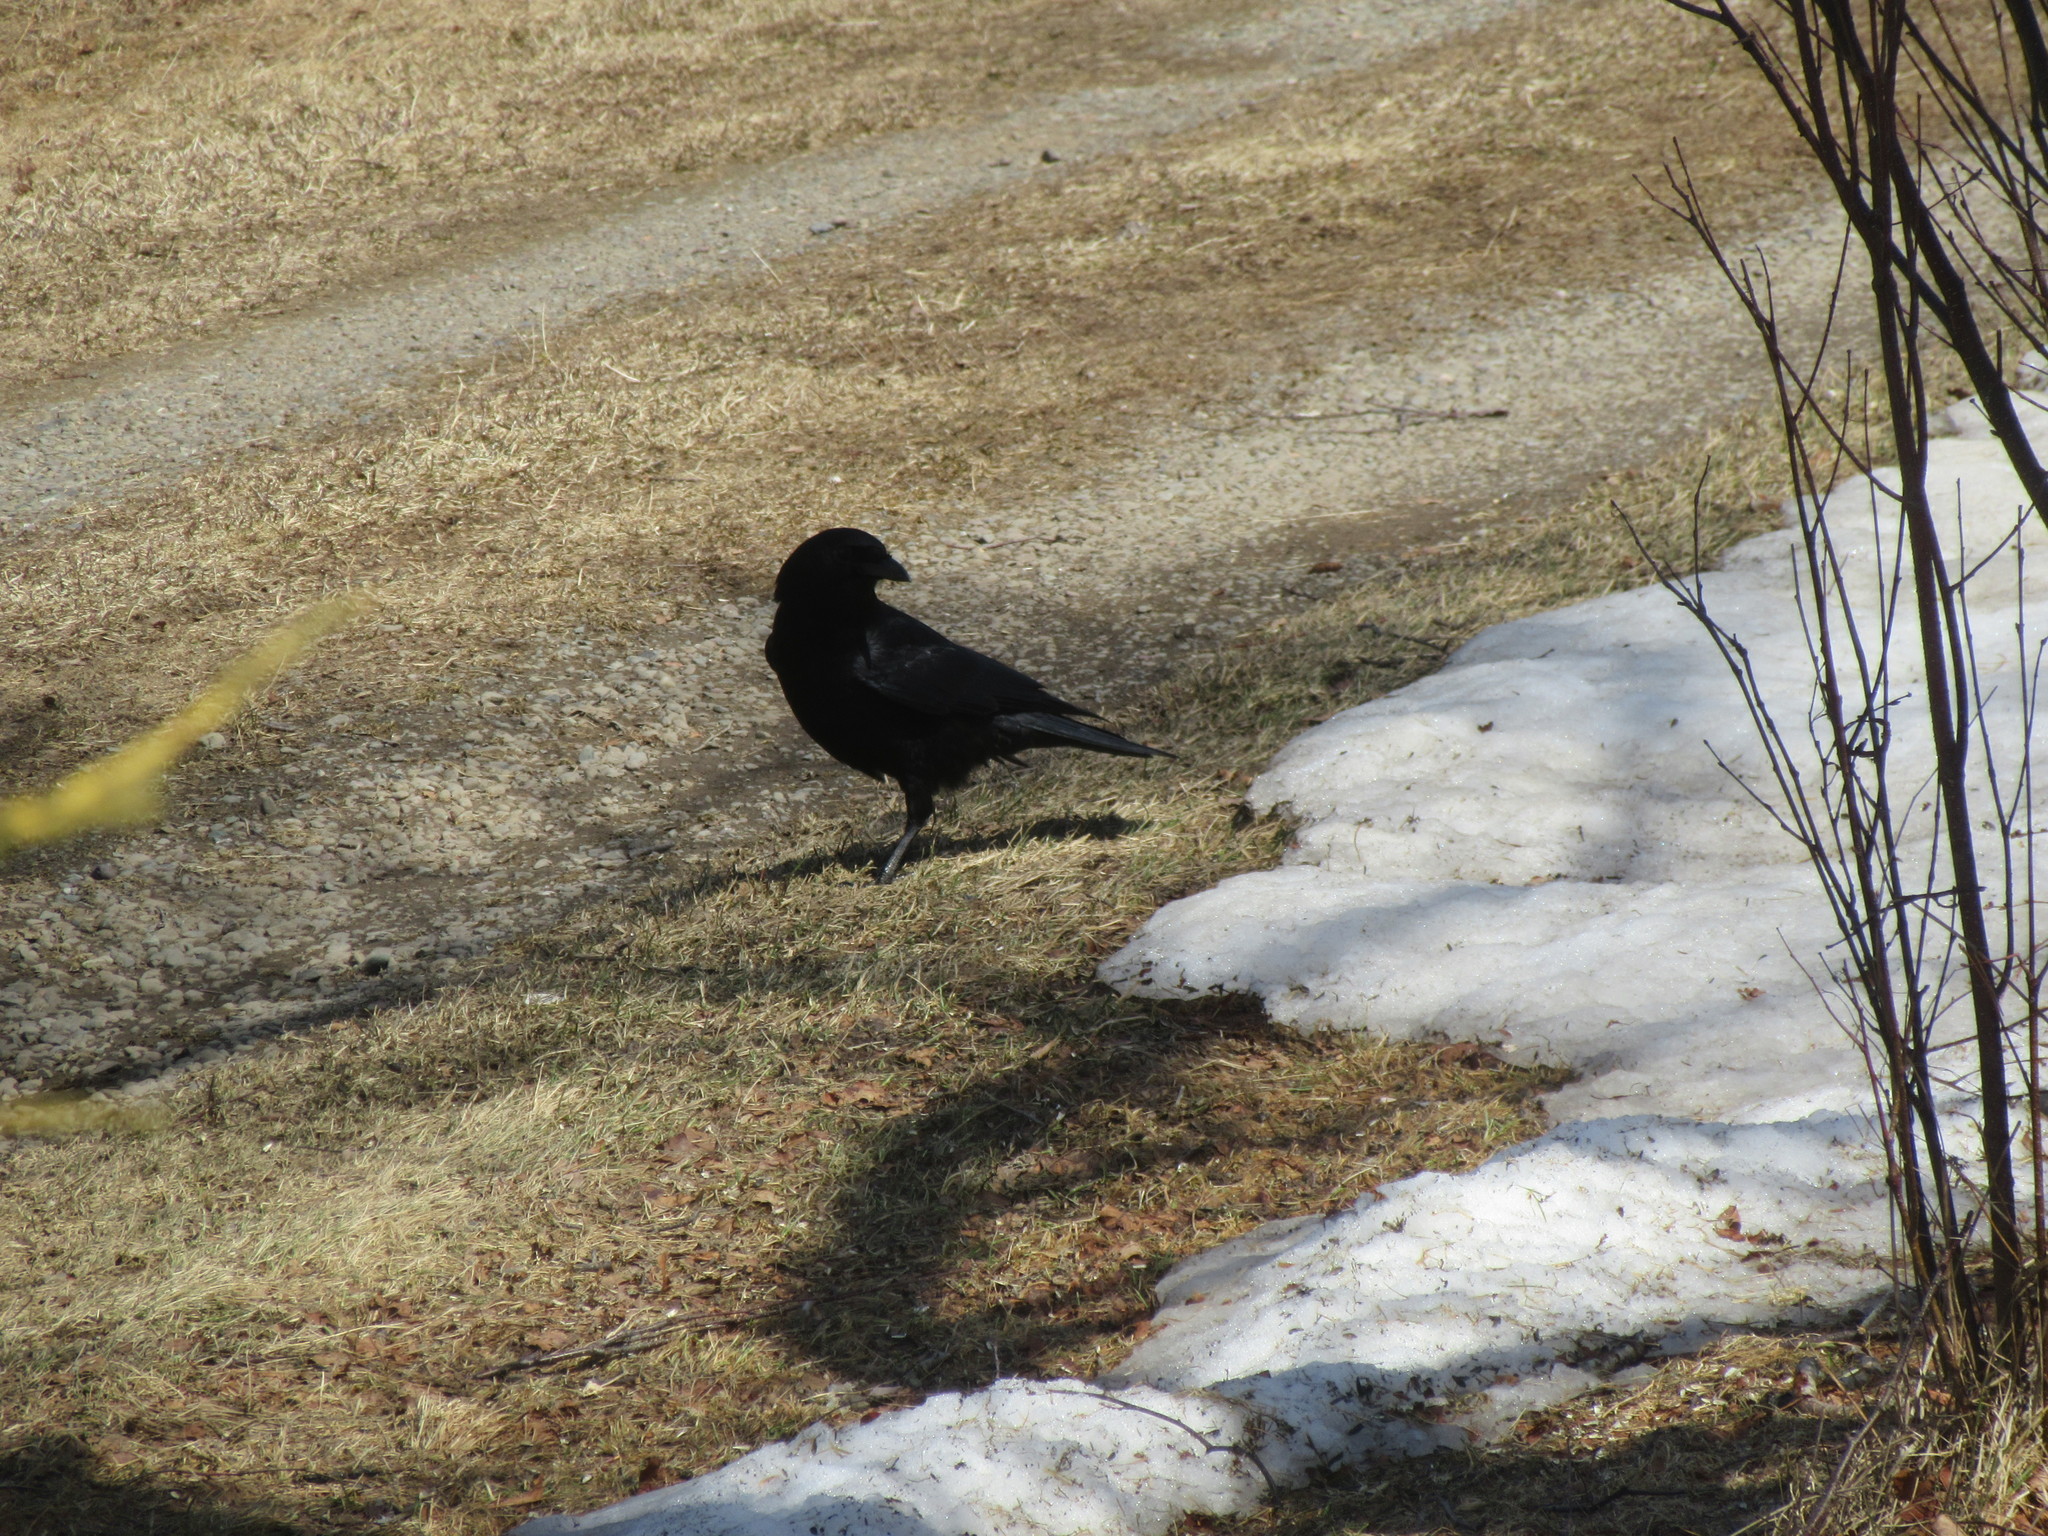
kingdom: Animalia
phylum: Chordata
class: Aves
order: Passeriformes
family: Corvidae
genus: Corvus
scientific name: Corvus brachyrhynchos
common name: American crow
